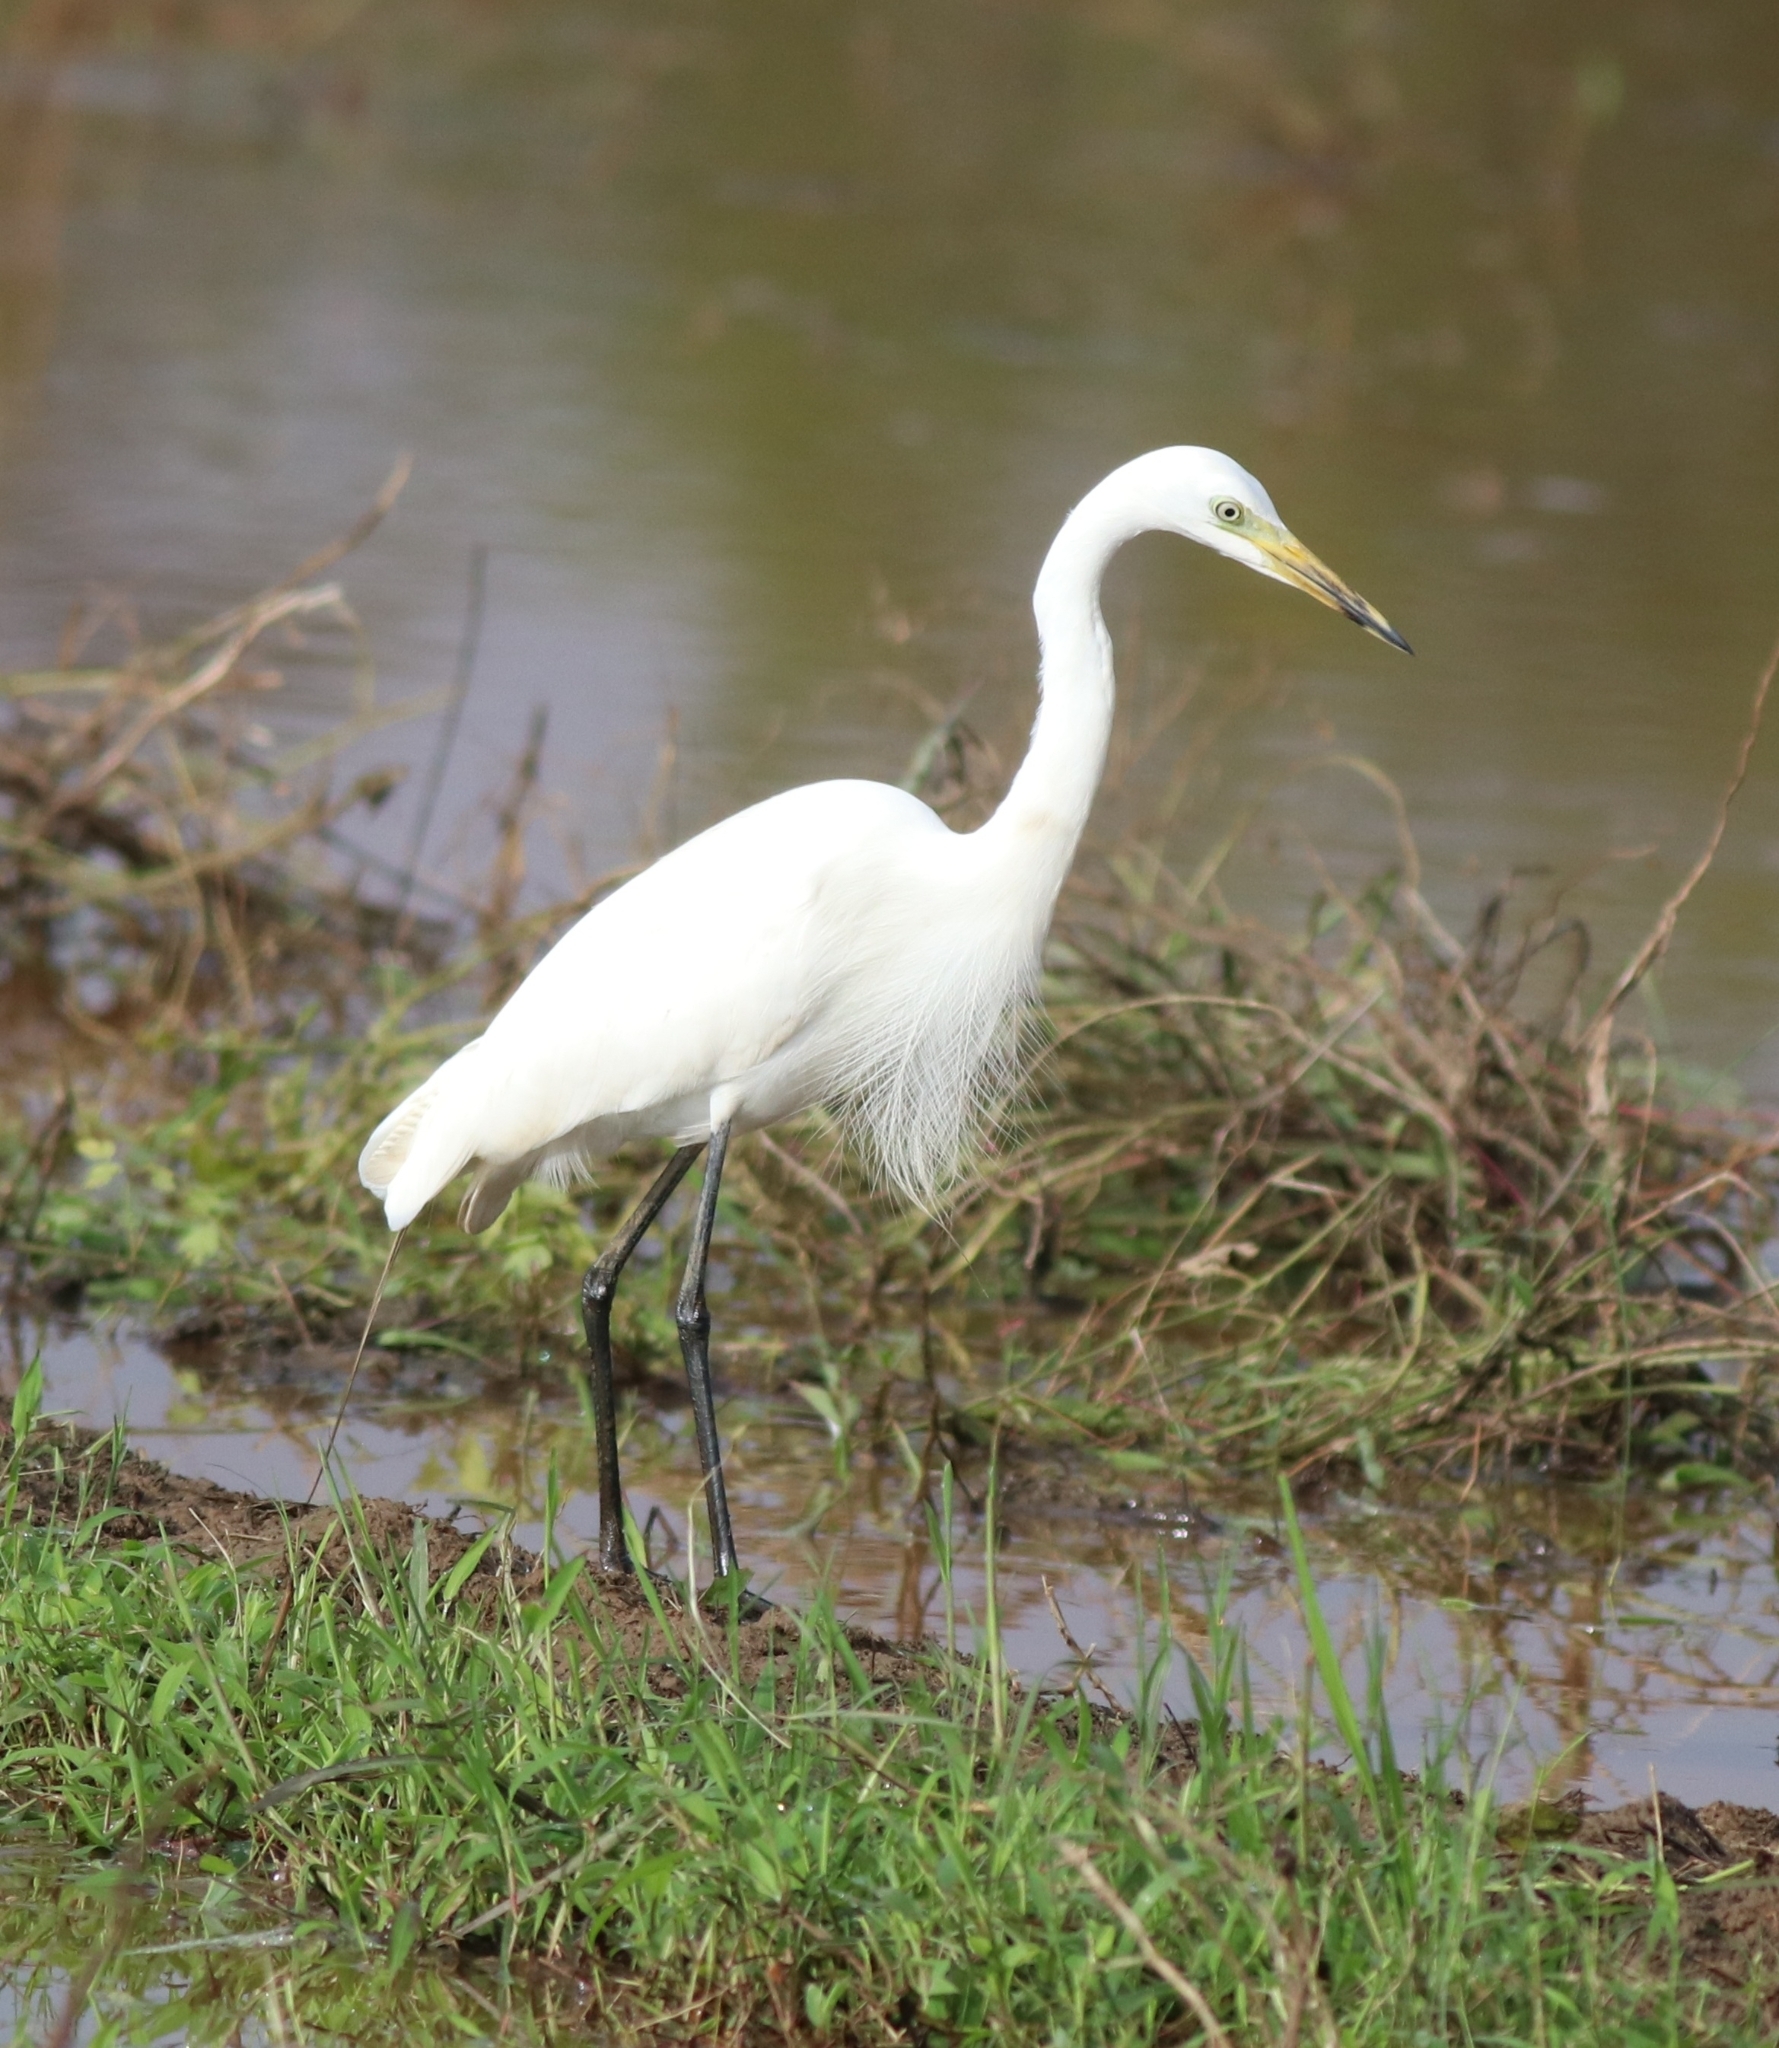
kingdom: Animalia
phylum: Chordata
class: Aves
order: Pelecaniformes
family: Ardeidae
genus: Egretta
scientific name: Egretta intermedia
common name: Intermediate egret
